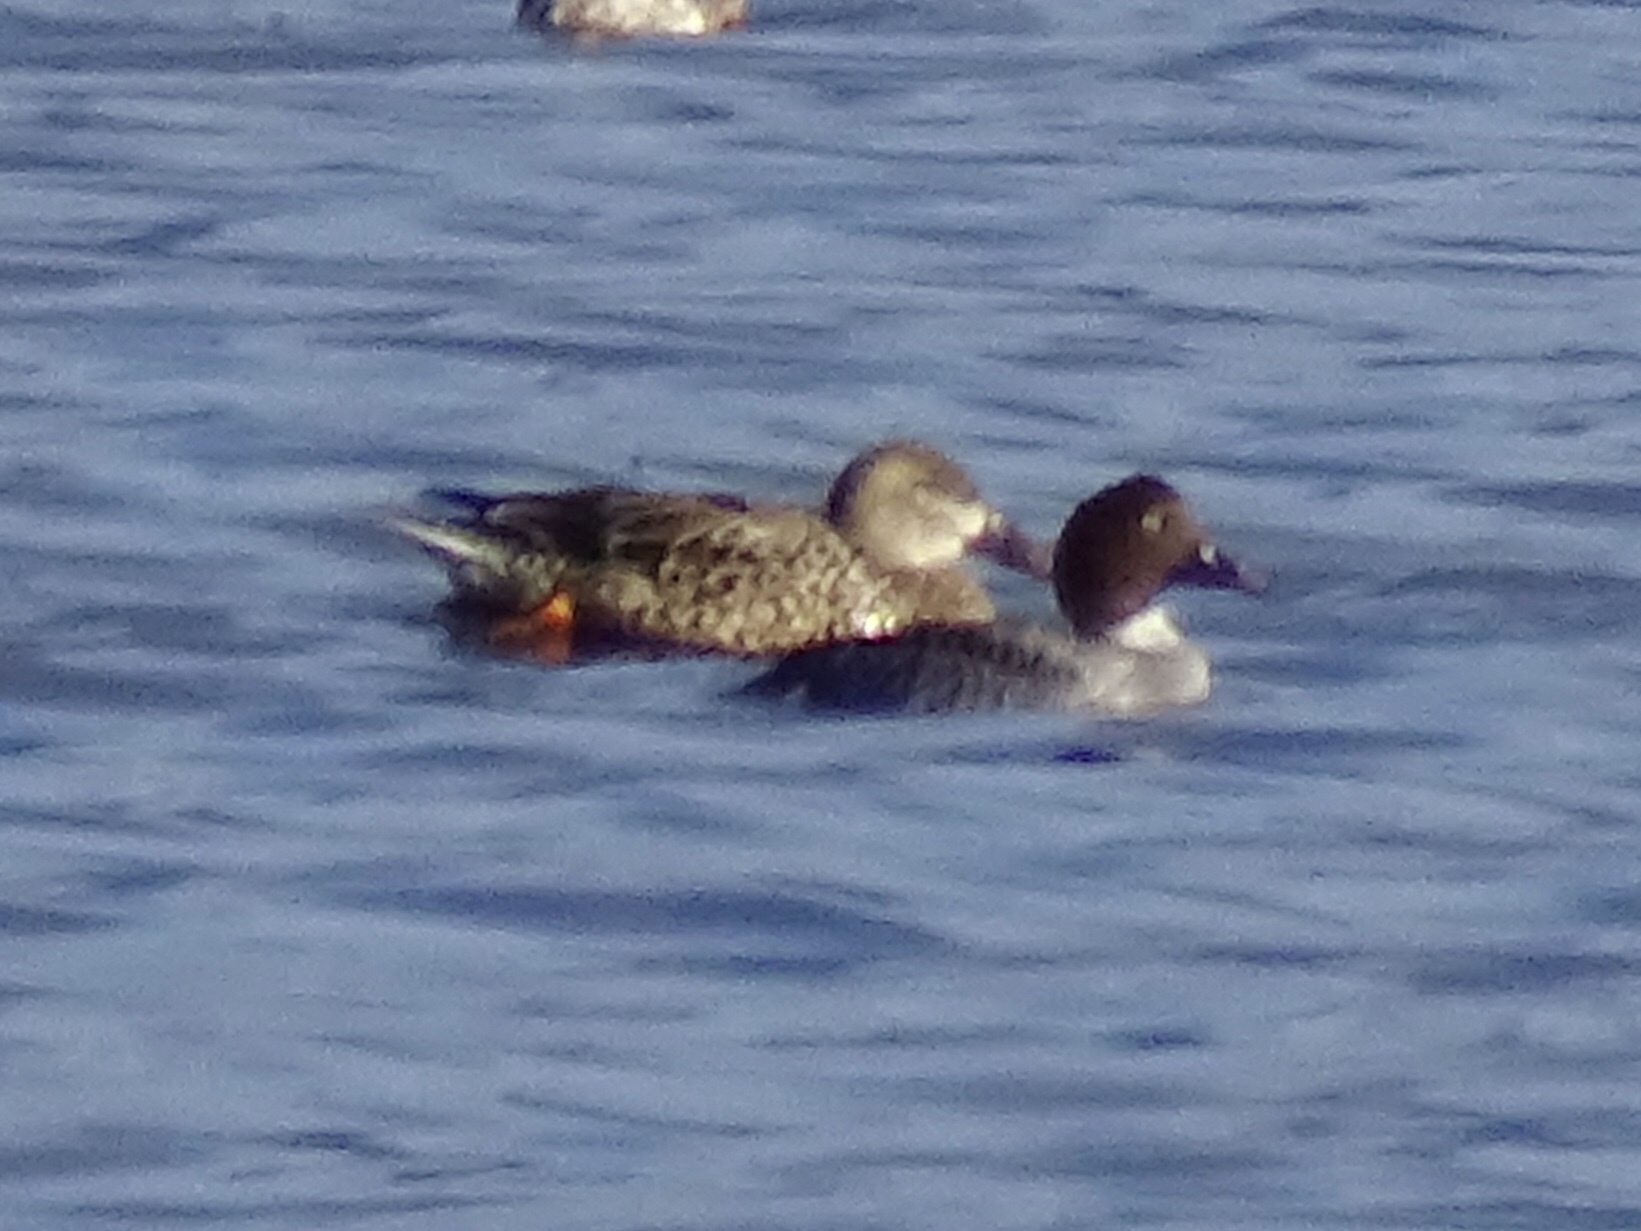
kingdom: Animalia
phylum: Chordata
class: Aves
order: Anseriformes
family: Anatidae
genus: Bucephala
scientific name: Bucephala clangula
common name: Common goldeneye
